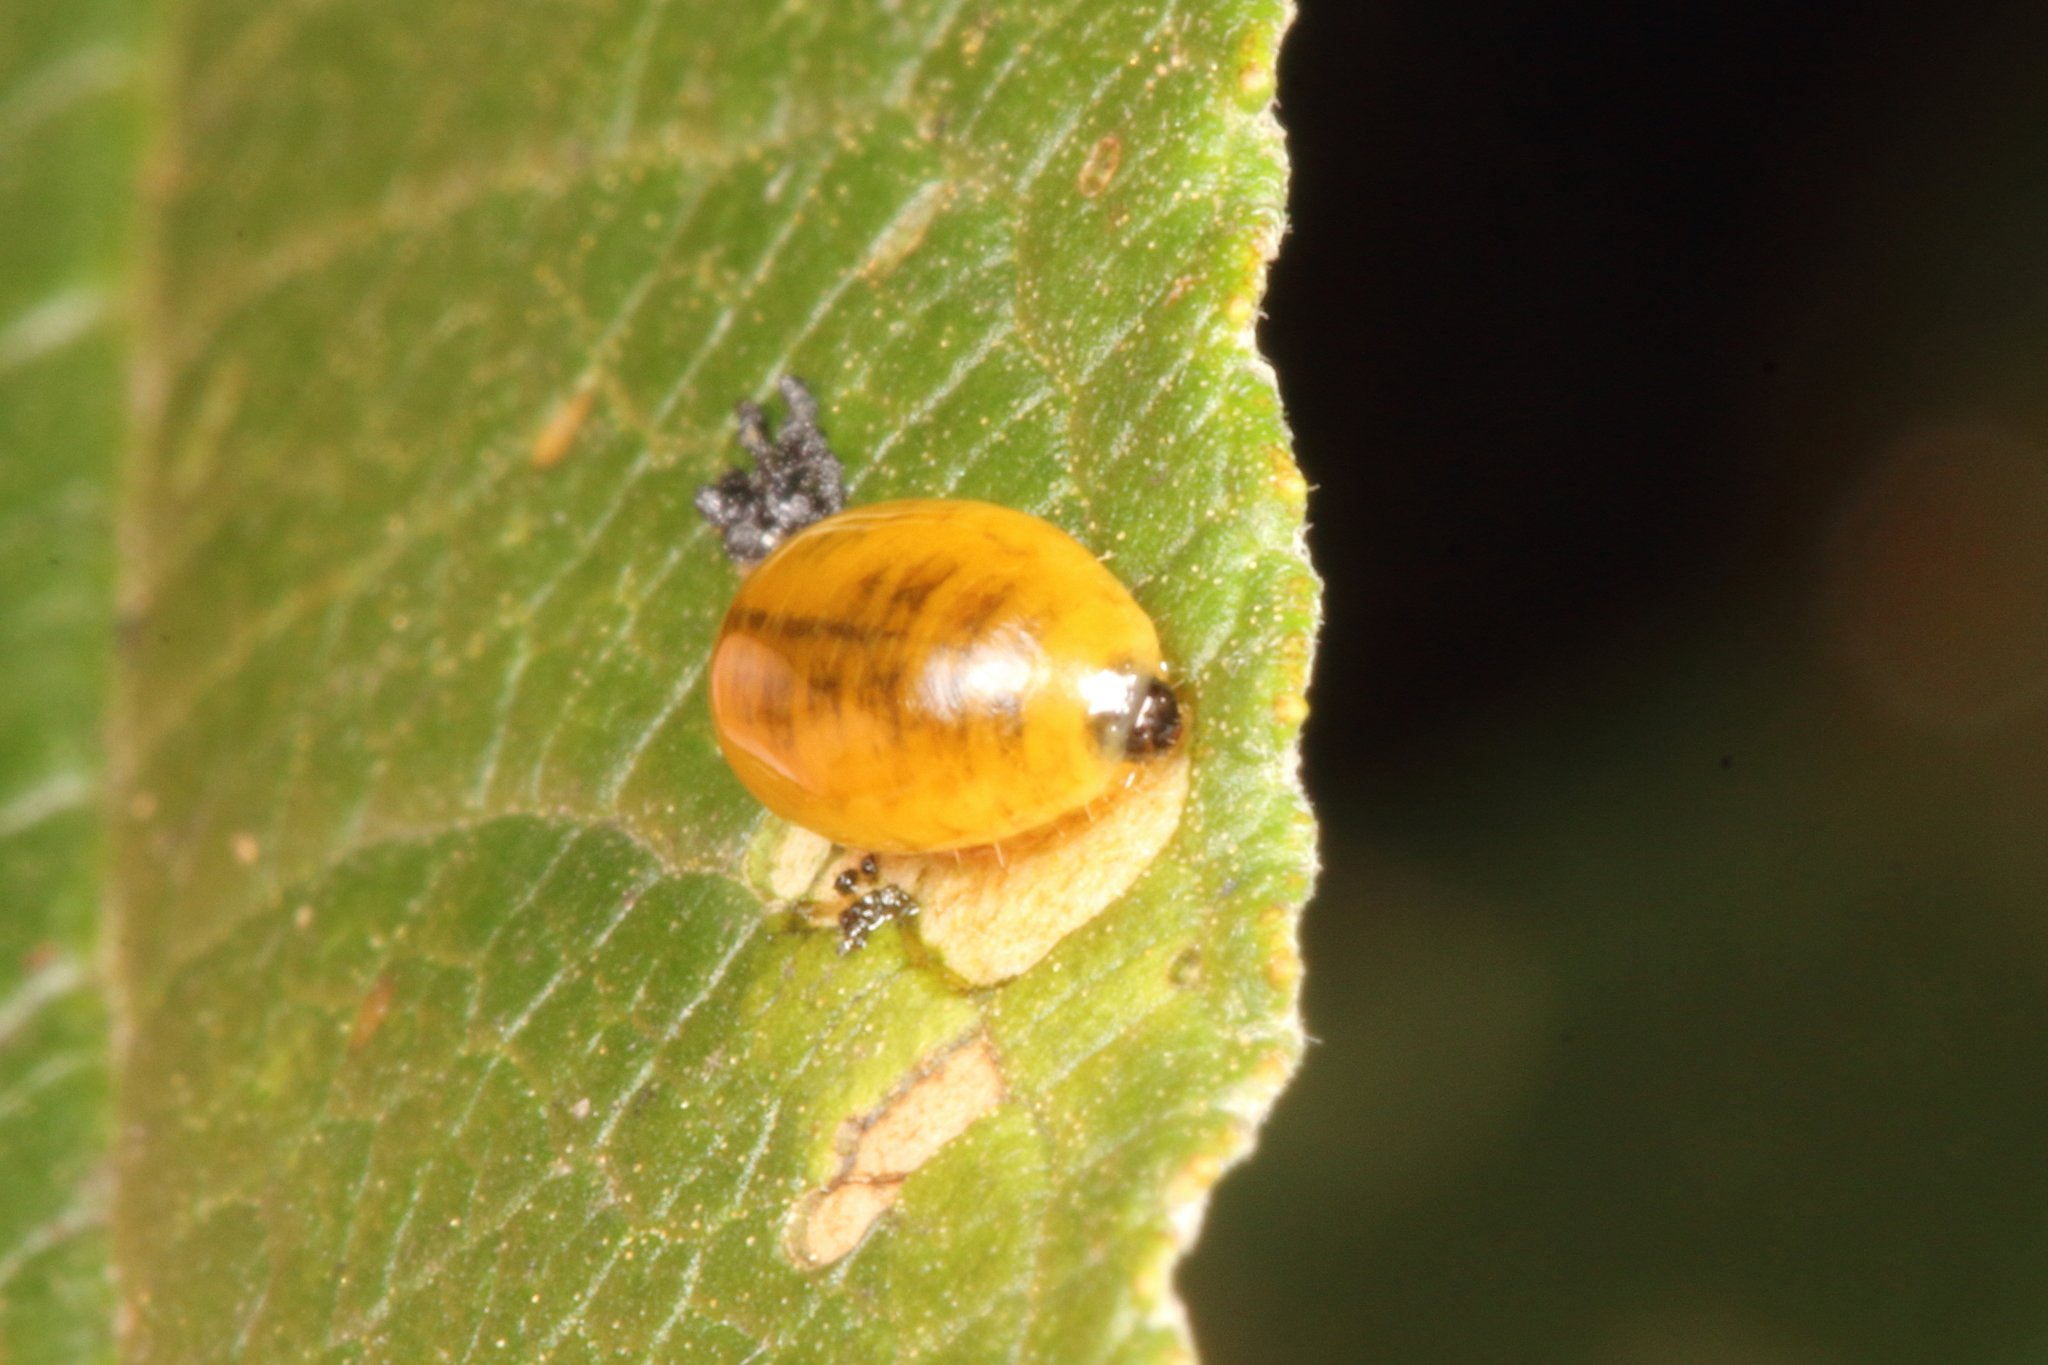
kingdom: Animalia
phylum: Arthropoda
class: Insecta
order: Coleoptera
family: Curculionidae
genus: Cleopus
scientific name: Cleopus japonicus
